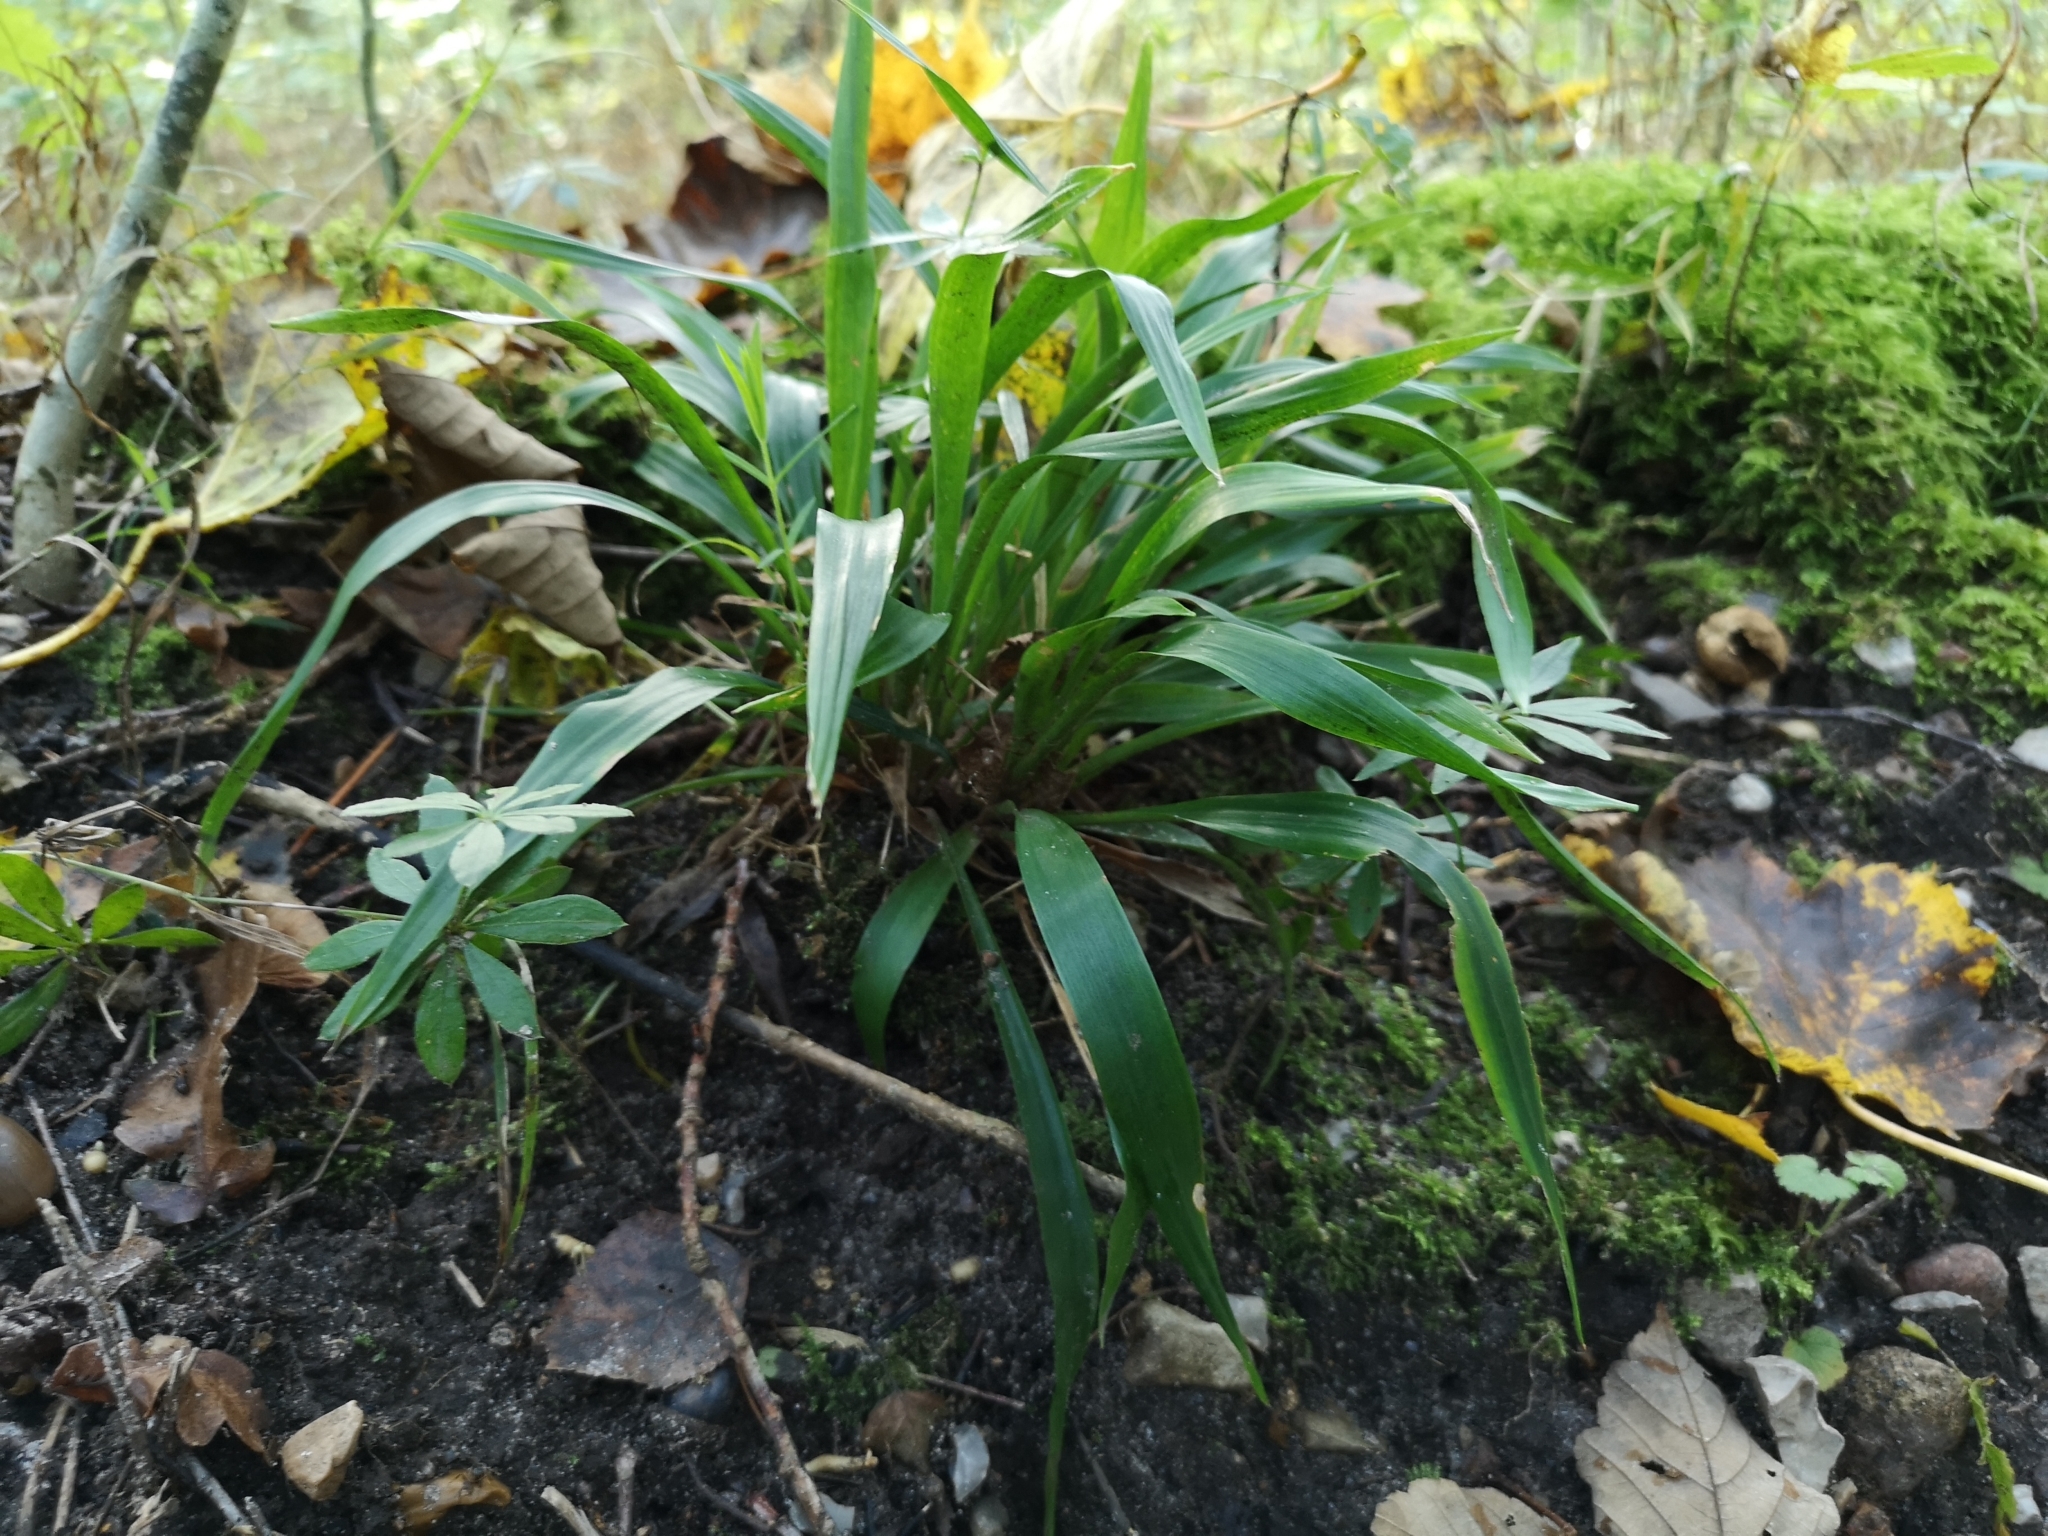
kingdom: Plantae
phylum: Tracheophyta
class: Liliopsida
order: Poales
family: Juncaceae
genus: Luzula
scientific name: Luzula pilosa
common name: Hairy wood-rush
